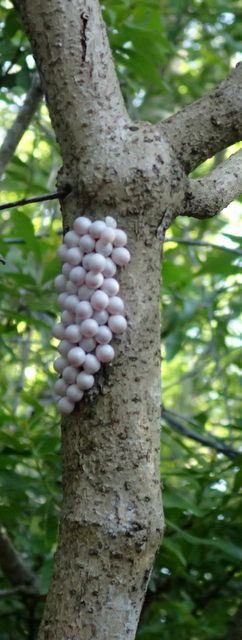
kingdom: Animalia
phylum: Mollusca
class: Gastropoda
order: Architaenioglossa
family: Ampullariidae
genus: Pomacea
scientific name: Pomacea paludosa
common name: Florida applesnail
